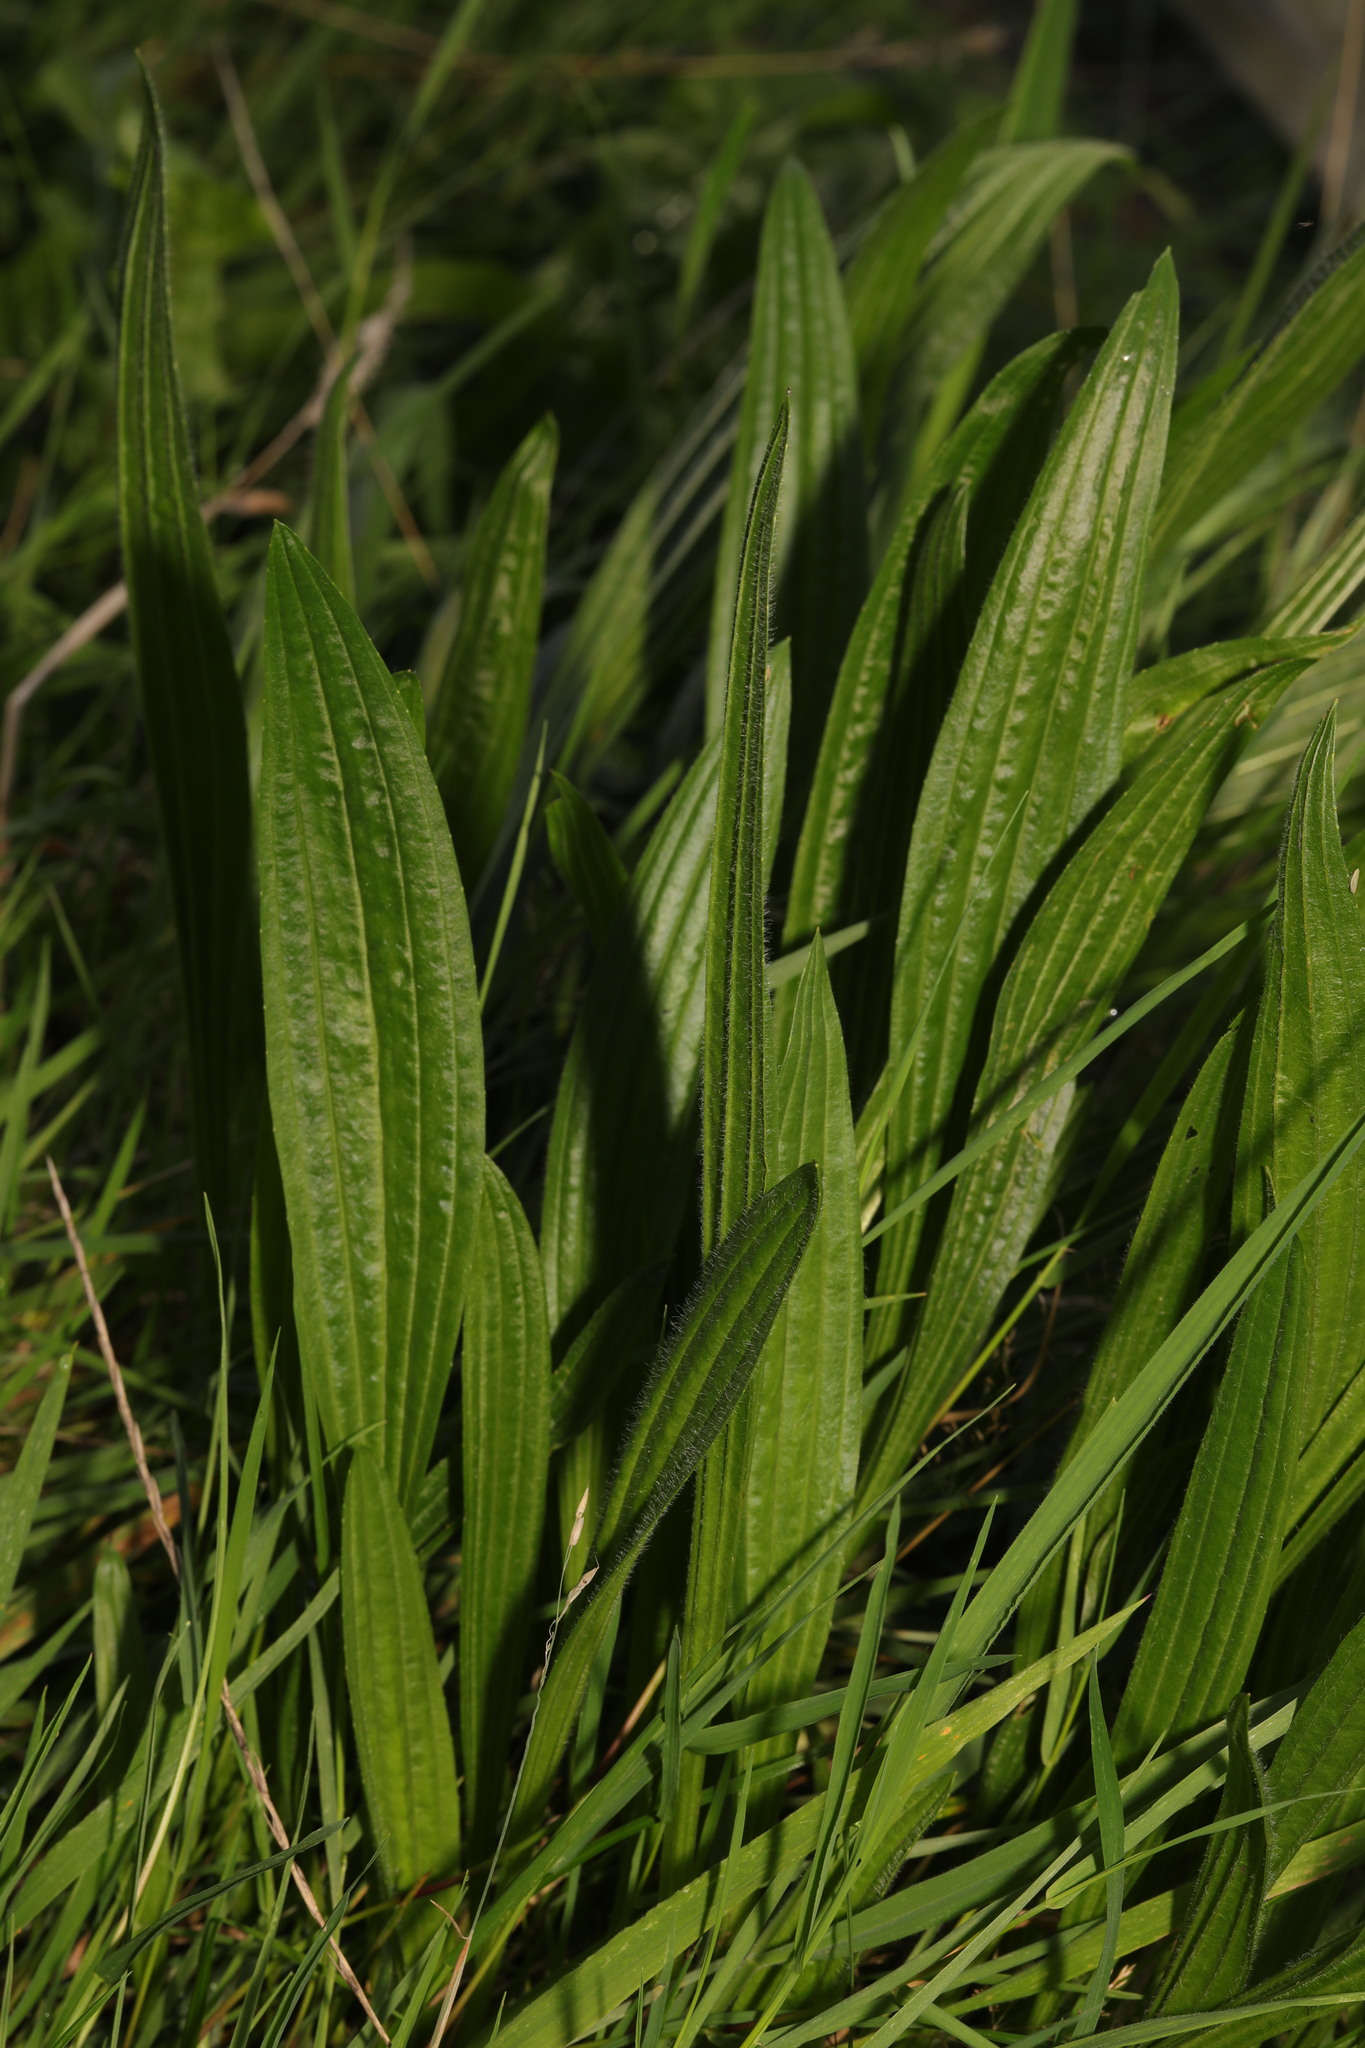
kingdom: Plantae
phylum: Tracheophyta
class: Magnoliopsida
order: Lamiales
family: Plantaginaceae
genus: Plantago
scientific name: Plantago lanceolata
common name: Ribwort plantain
